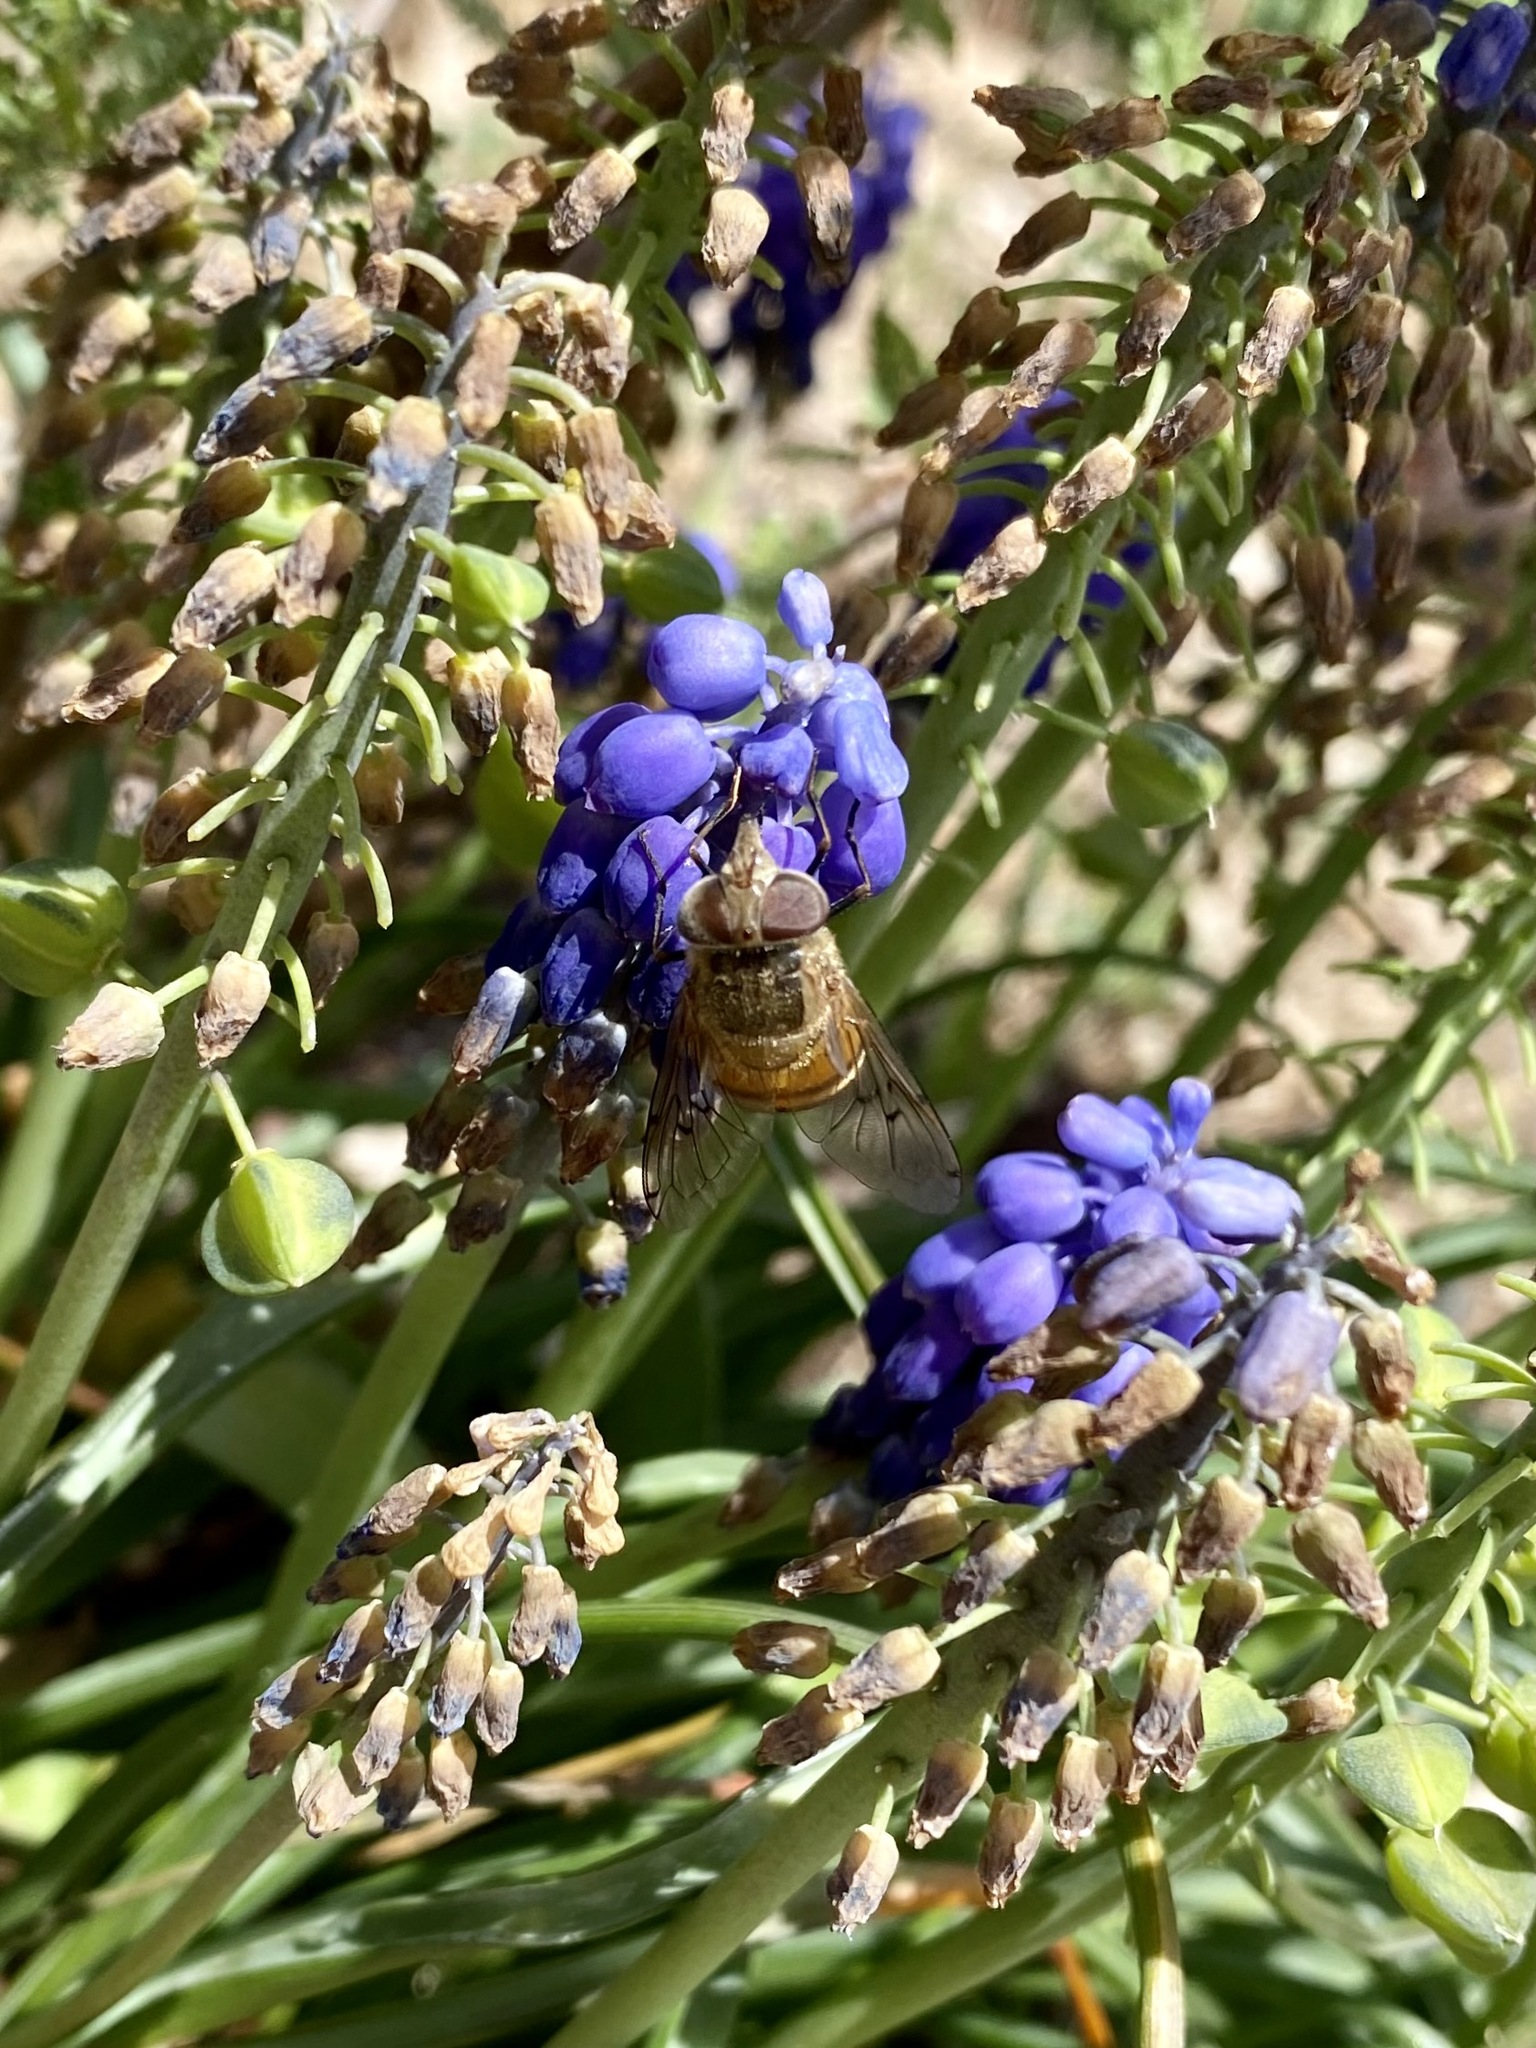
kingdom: Animalia
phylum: Arthropoda
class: Insecta
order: Diptera
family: Syrphidae
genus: Copestylum
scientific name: Copestylum haagii
